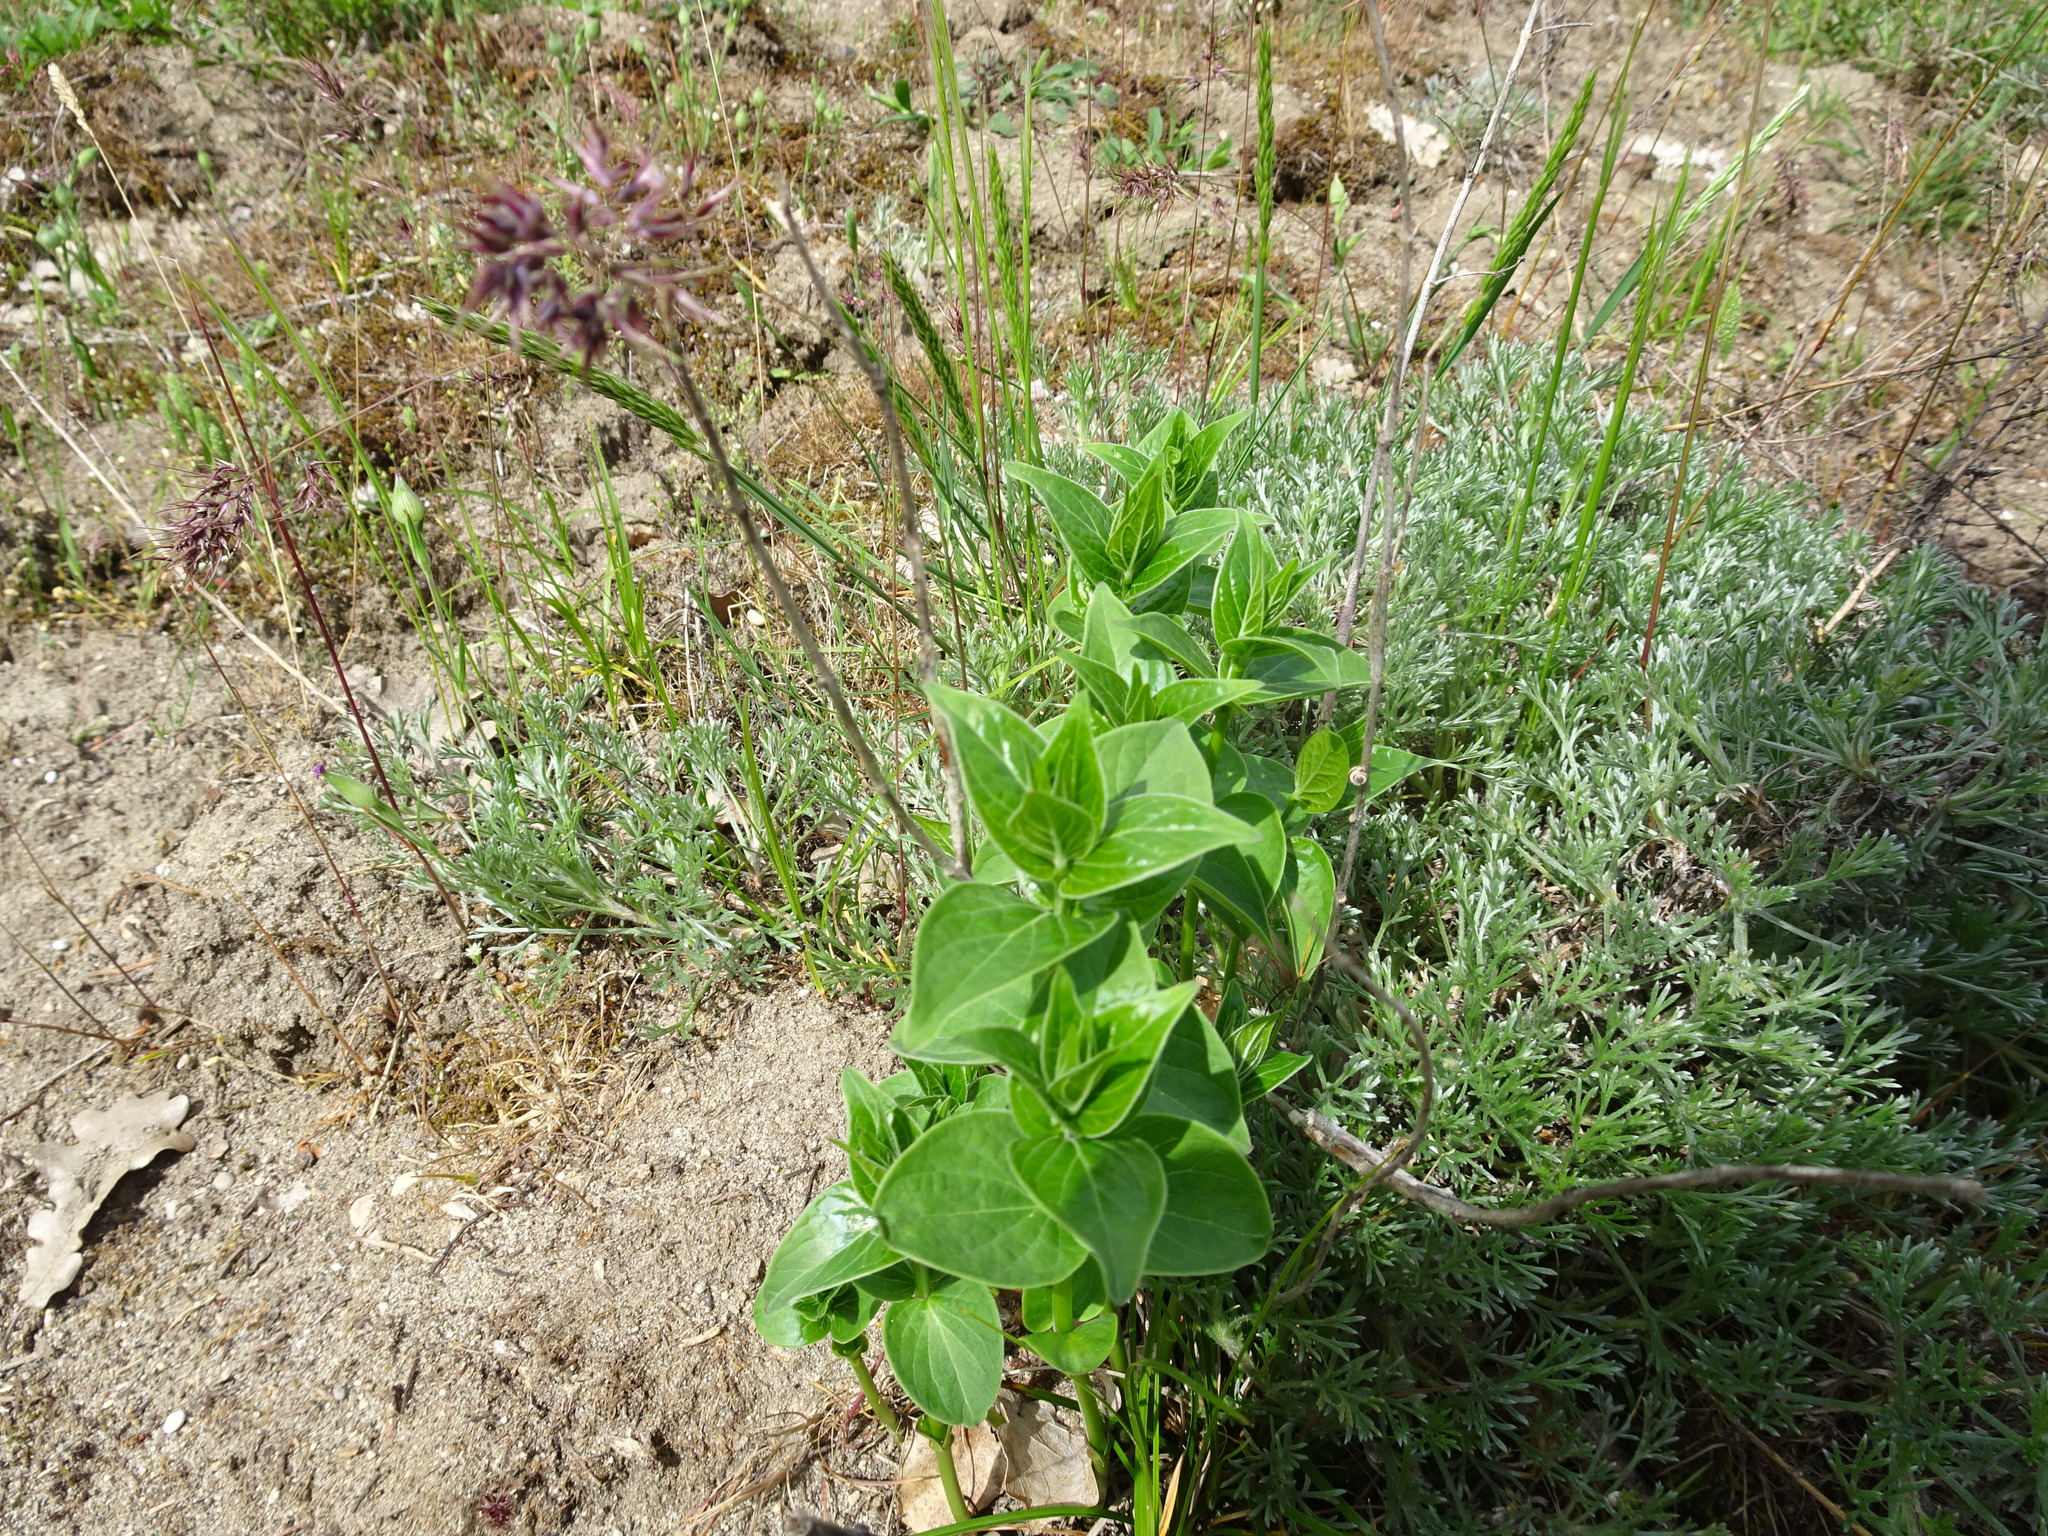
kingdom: Plantae
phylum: Tracheophyta
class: Magnoliopsida
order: Gentianales
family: Apocynaceae
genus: Vincetoxicum
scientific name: Vincetoxicum hirundinaria
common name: White swallowwort
